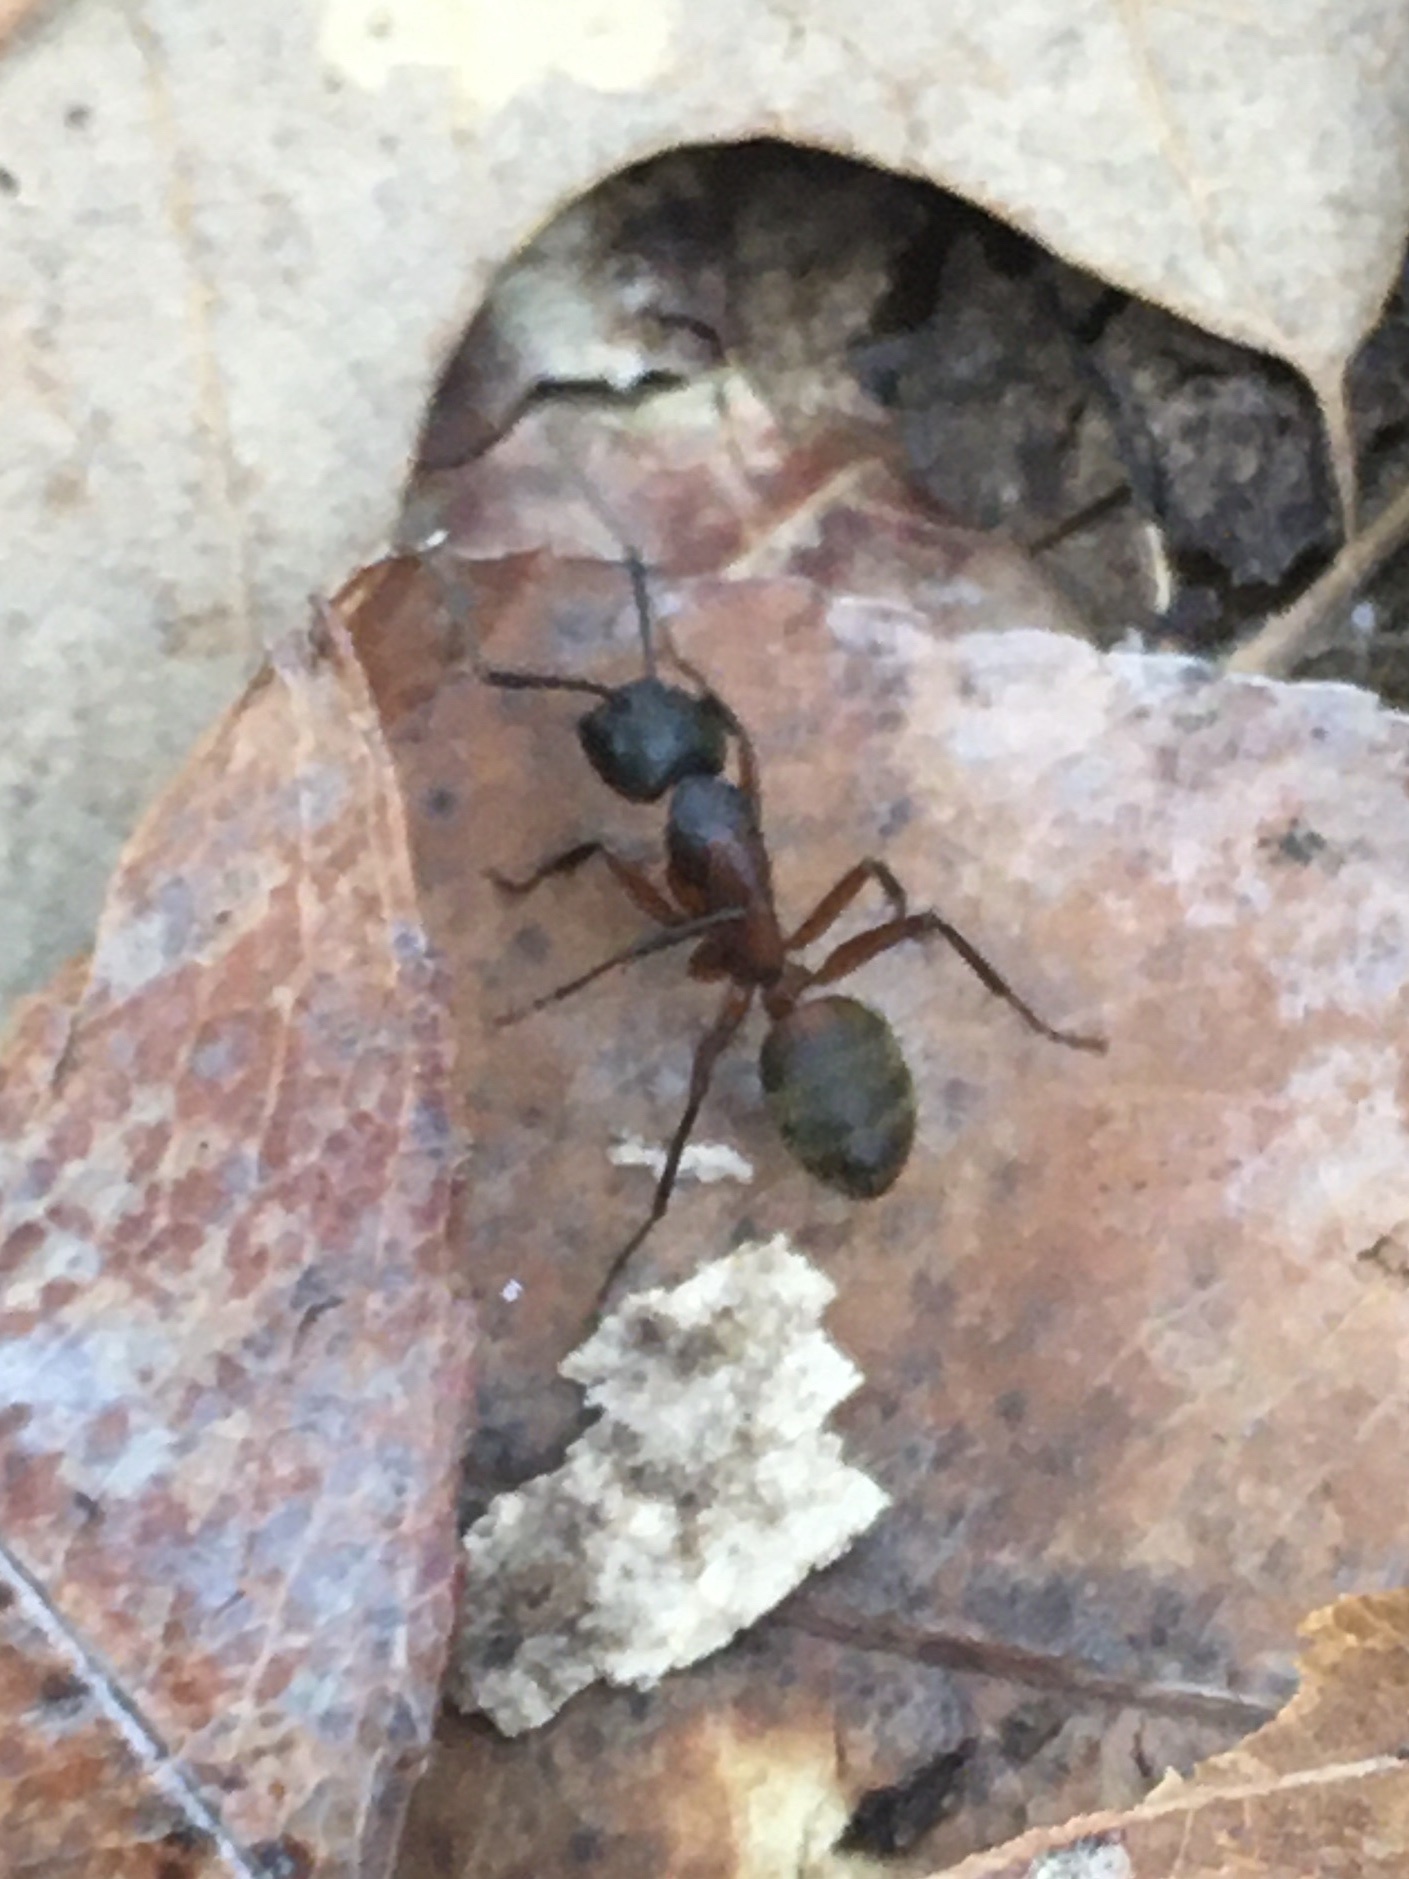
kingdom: Animalia
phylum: Arthropoda
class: Insecta
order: Hymenoptera
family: Formicidae
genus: Camponotus
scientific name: Camponotus chromaiodes
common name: Red carpenter ant
